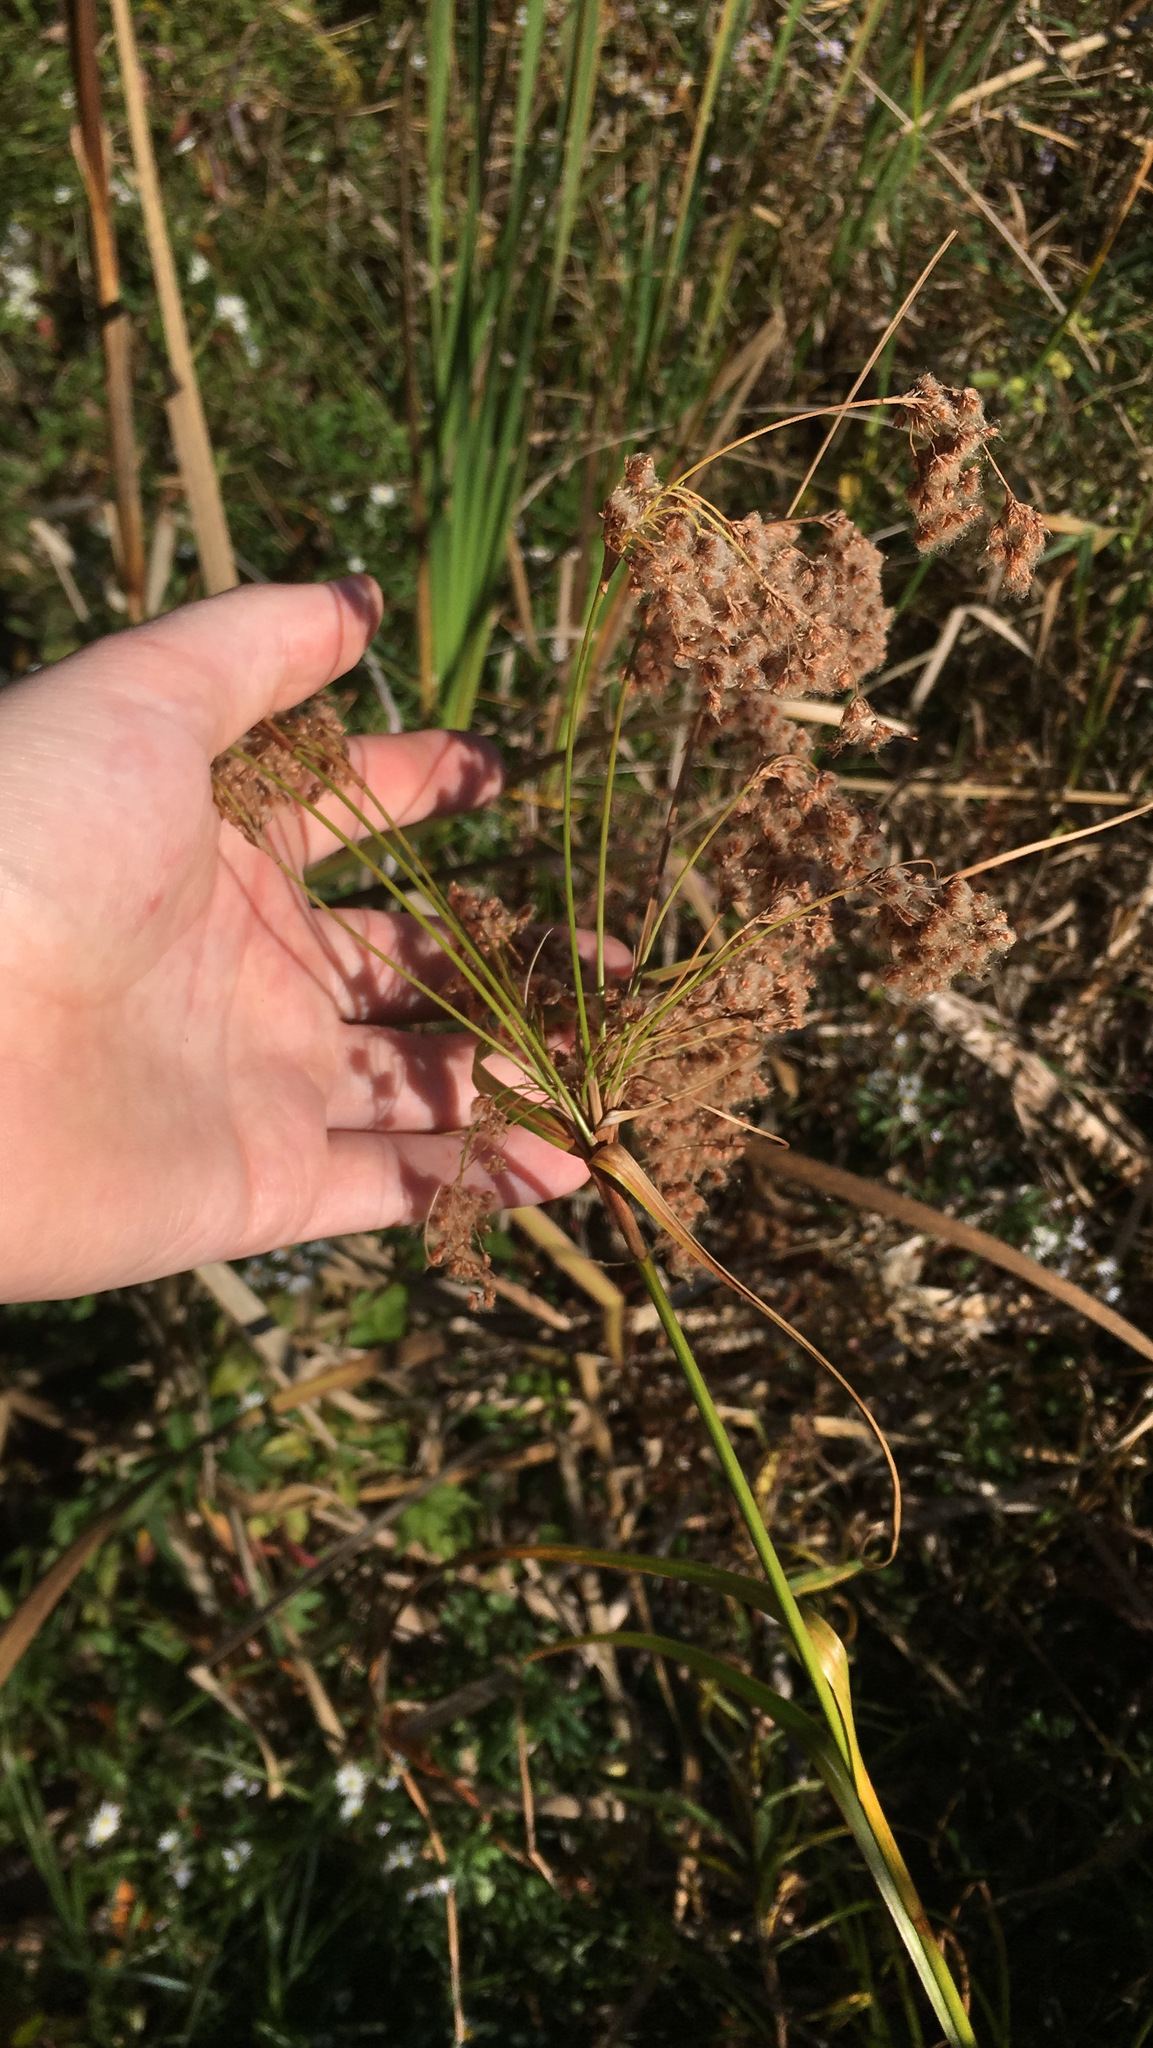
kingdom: Plantae
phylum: Tracheophyta
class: Liliopsida
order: Poales
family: Cyperaceae
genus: Scirpus
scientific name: Scirpus cyperinus
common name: Black-sheathed bulrush
